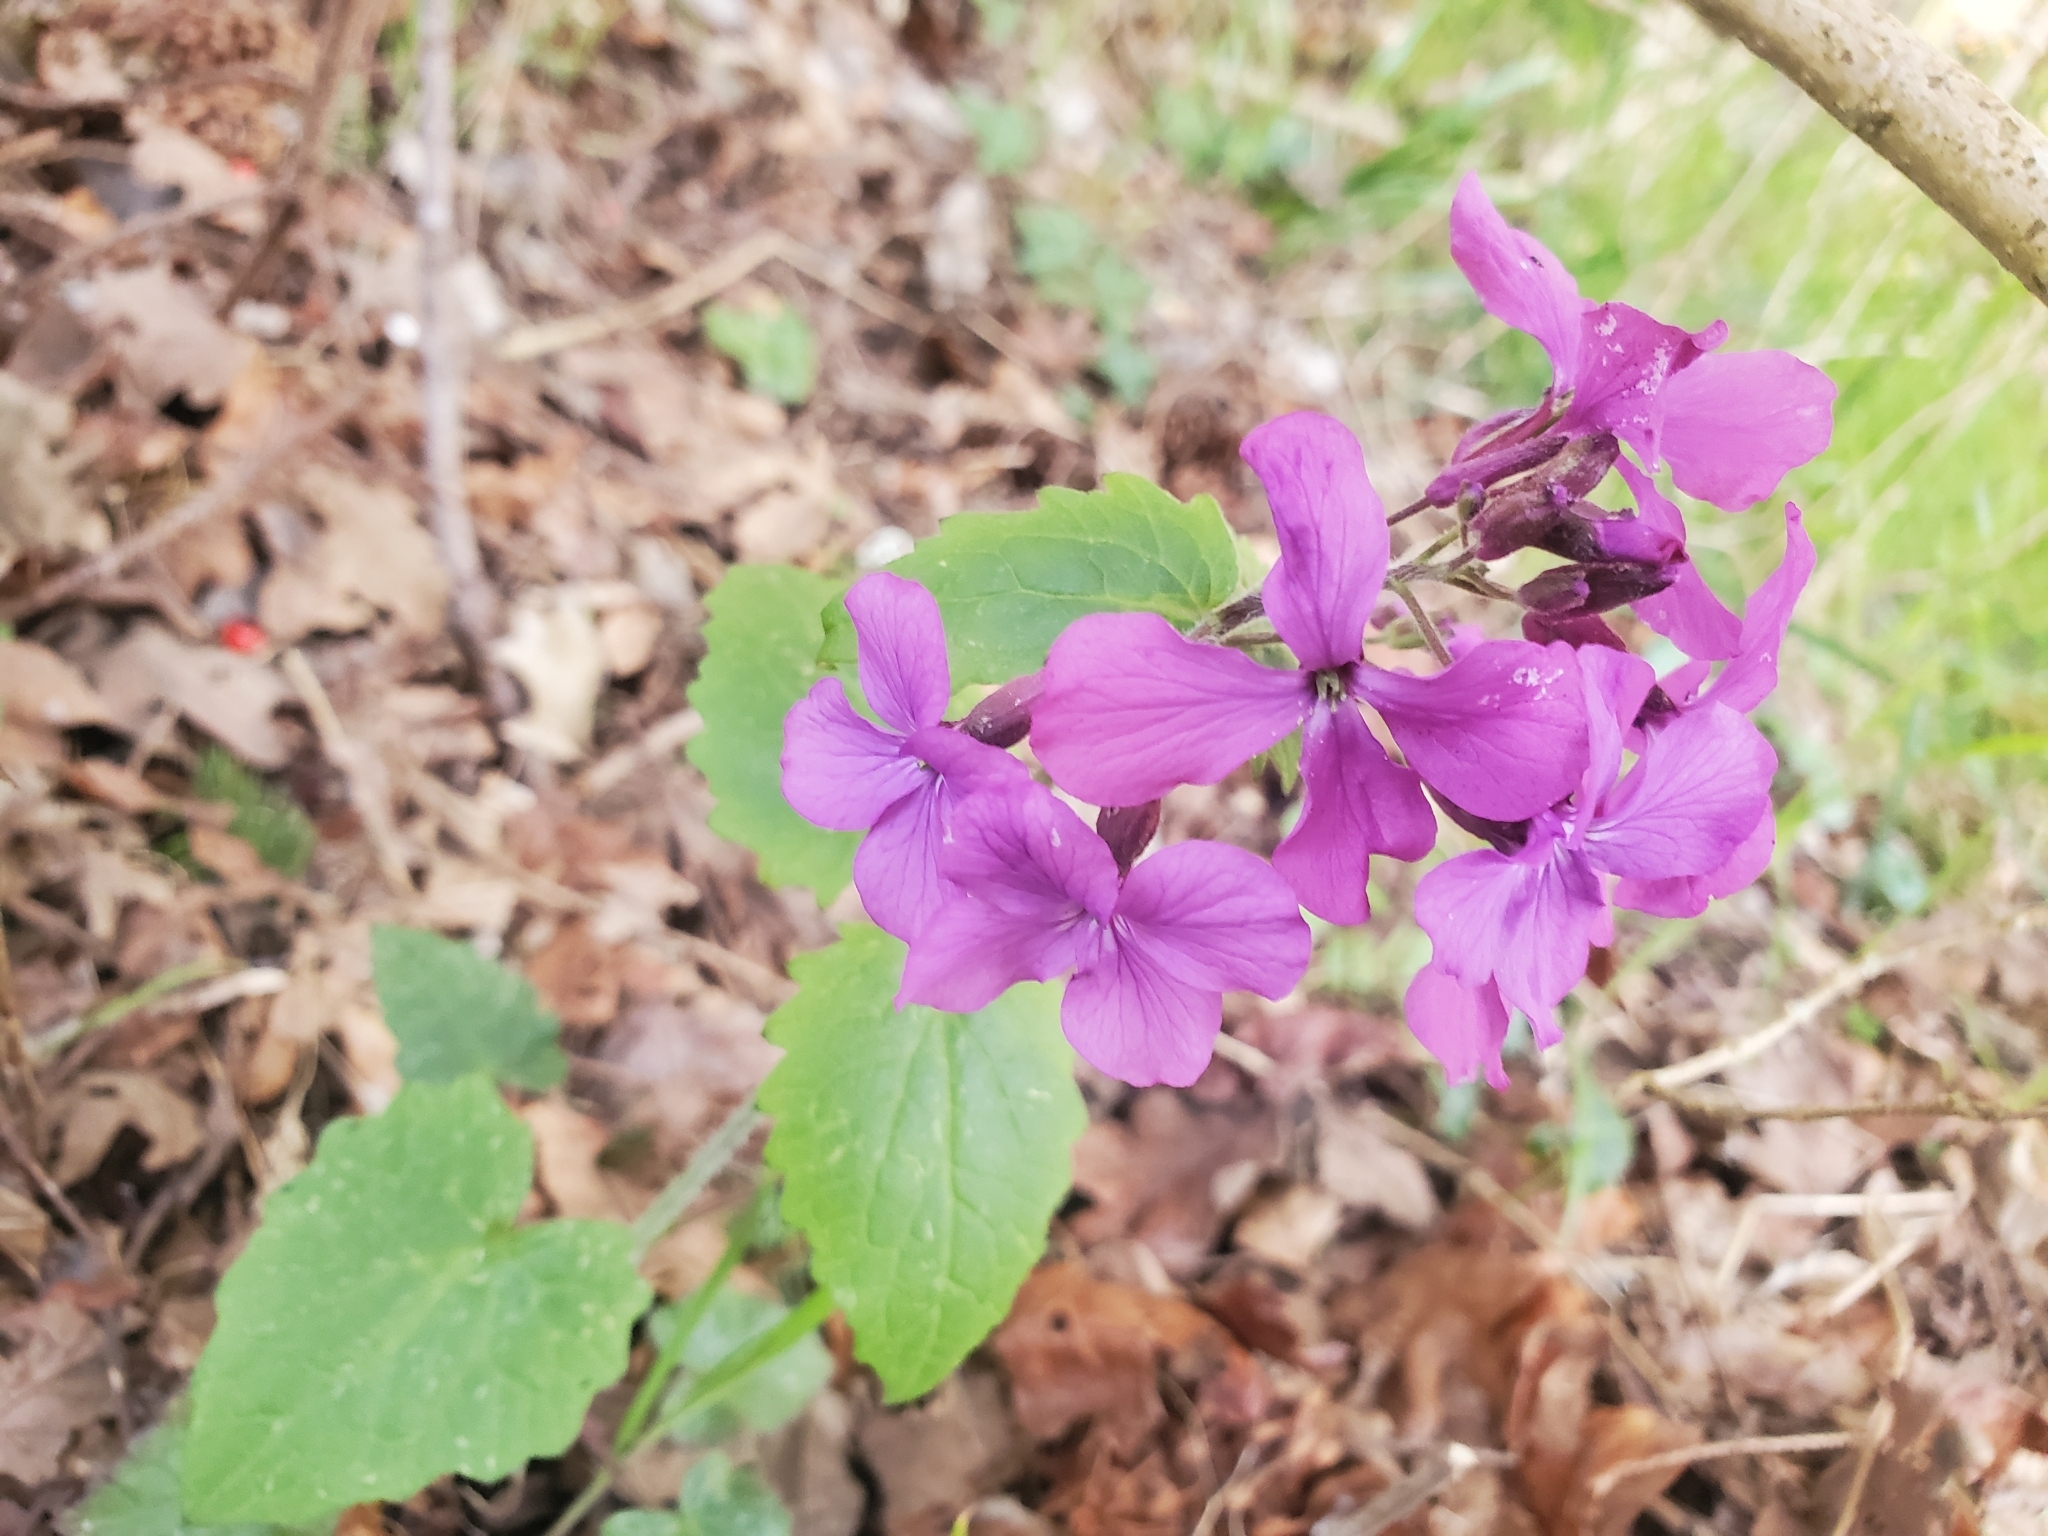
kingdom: Plantae
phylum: Tracheophyta
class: Magnoliopsida
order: Brassicales
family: Brassicaceae
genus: Lunaria
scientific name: Lunaria annua
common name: Honesty
